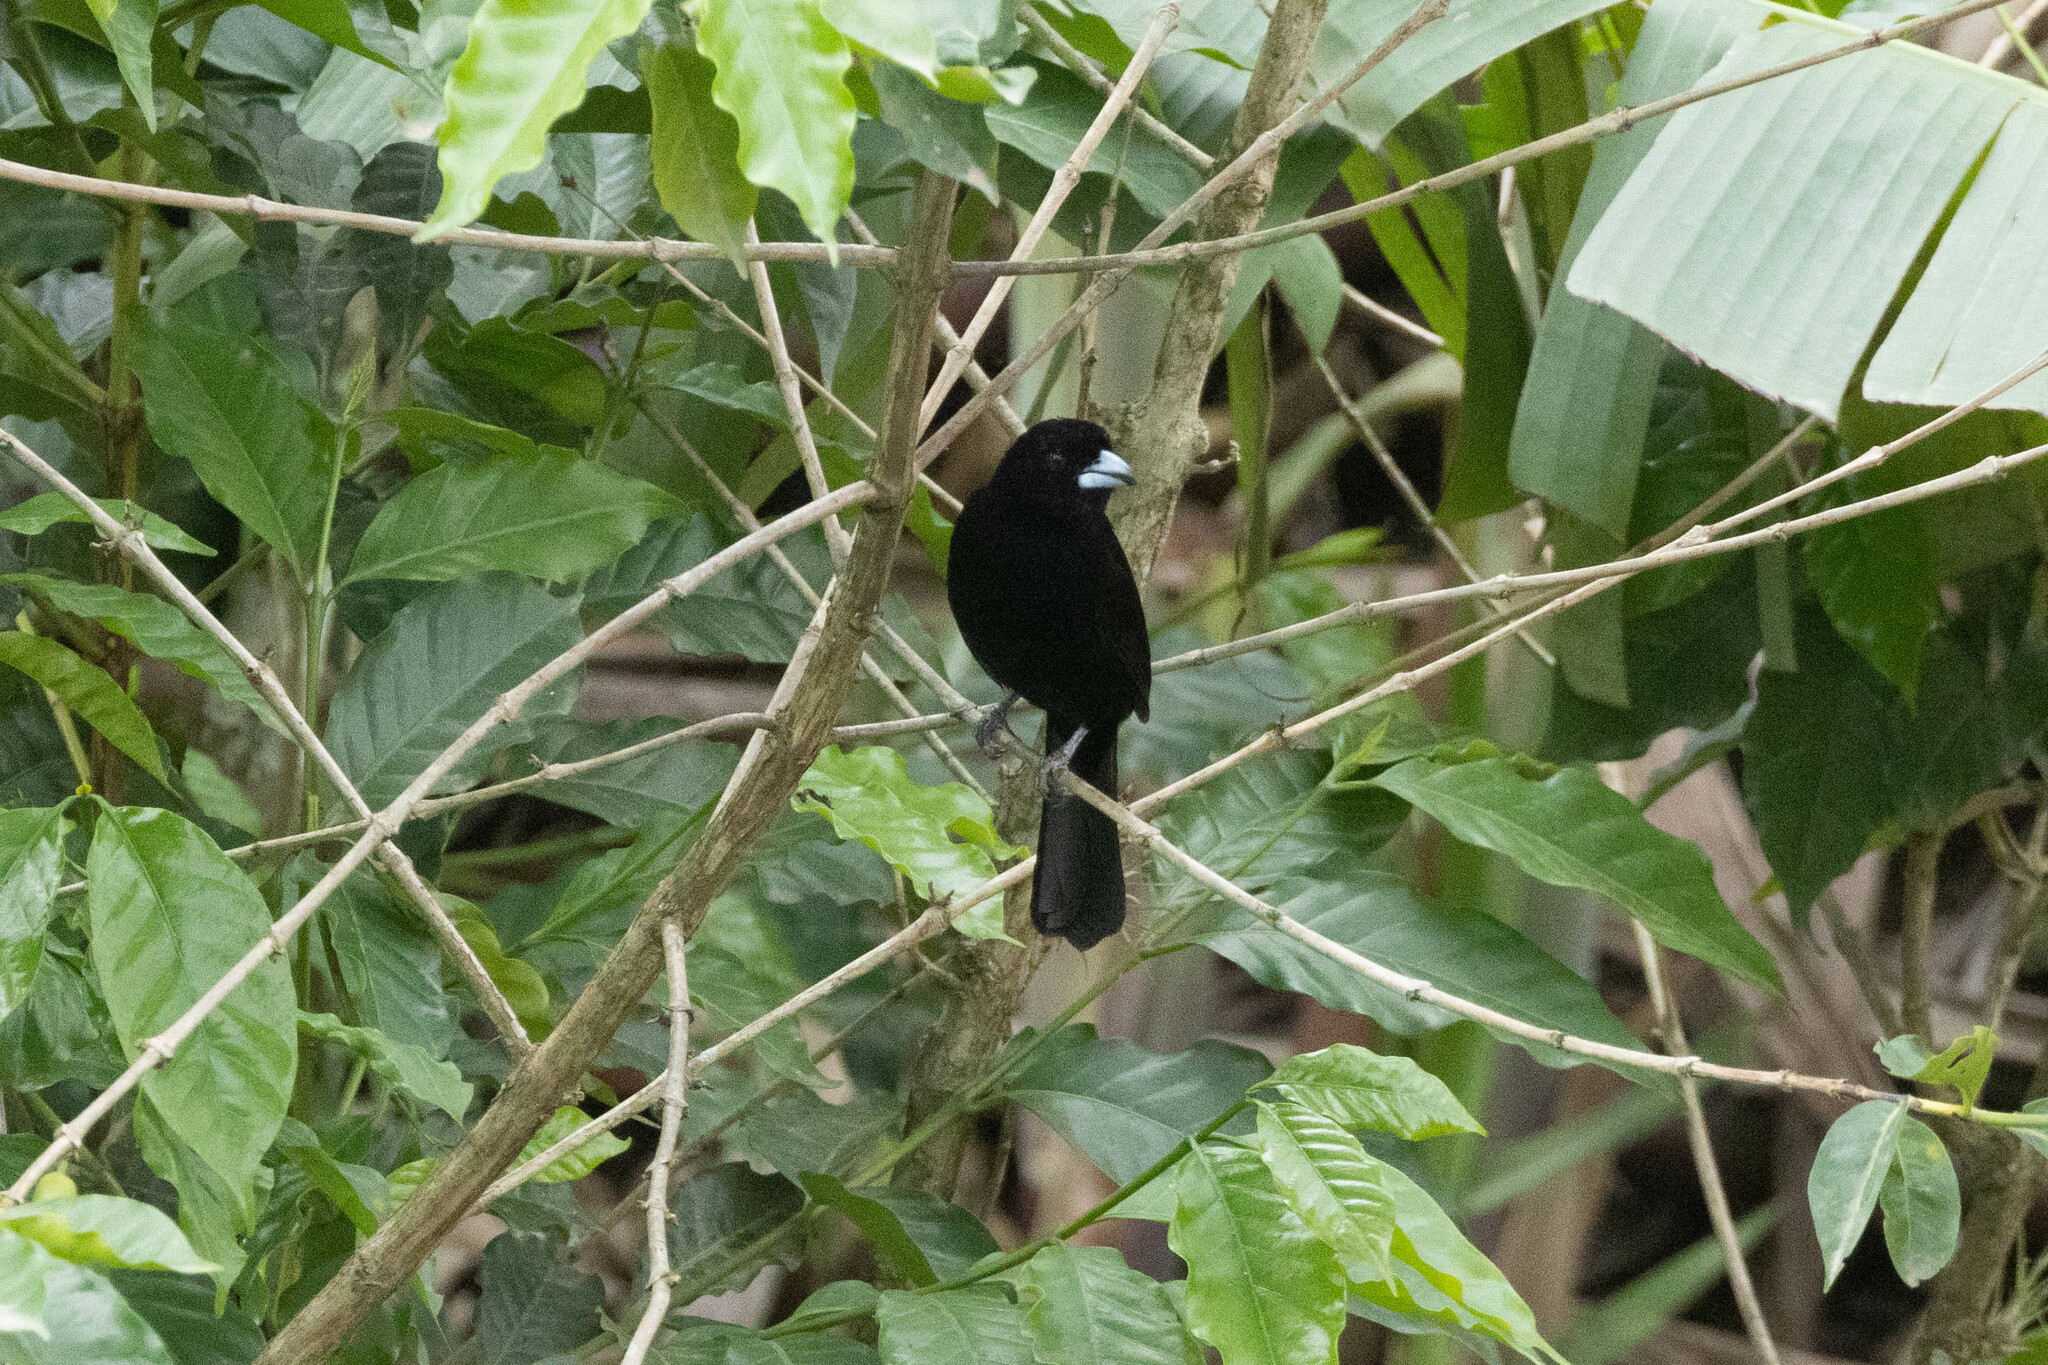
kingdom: Animalia
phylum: Chordata
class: Aves
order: Passeriformes
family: Thraupidae
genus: Ramphocelus
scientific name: Ramphocelus flammigerus
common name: Flame-rumped tanager
